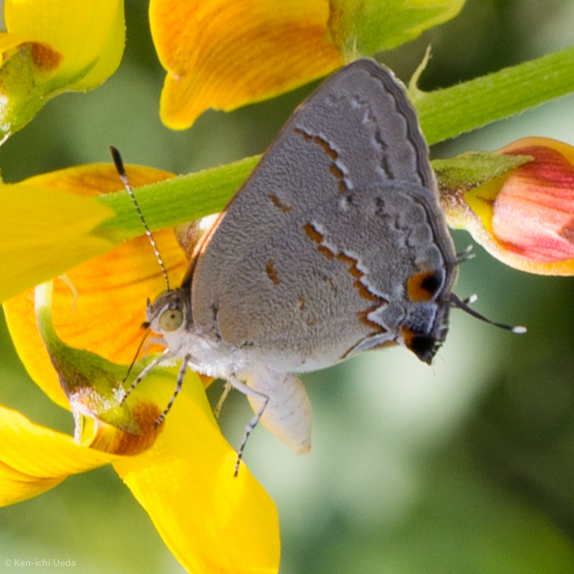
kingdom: Animalia
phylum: Arthropoda
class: Insecta
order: Lepidoptera
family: Lycaenidae
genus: Ministrymon
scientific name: Ministrymon leda
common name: Leda ministreak
